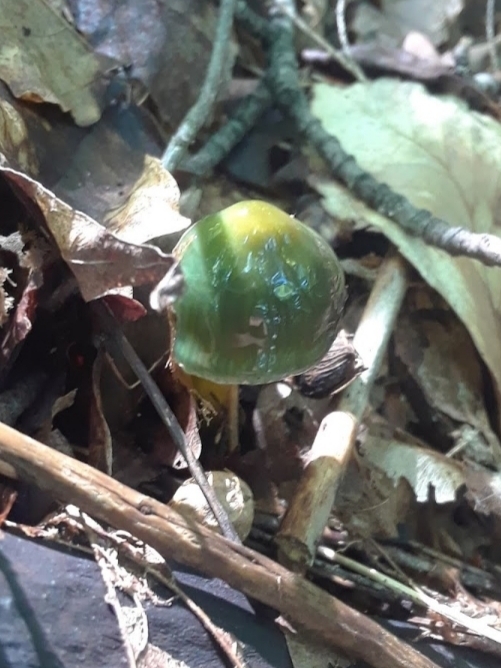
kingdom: Fungi
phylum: Basidiomycota
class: Agaricomycetes
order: Agaricales
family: Hygrophoraceae
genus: Gliophorus
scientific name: Gliophorus psittacinus
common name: Parrot wax-cap
